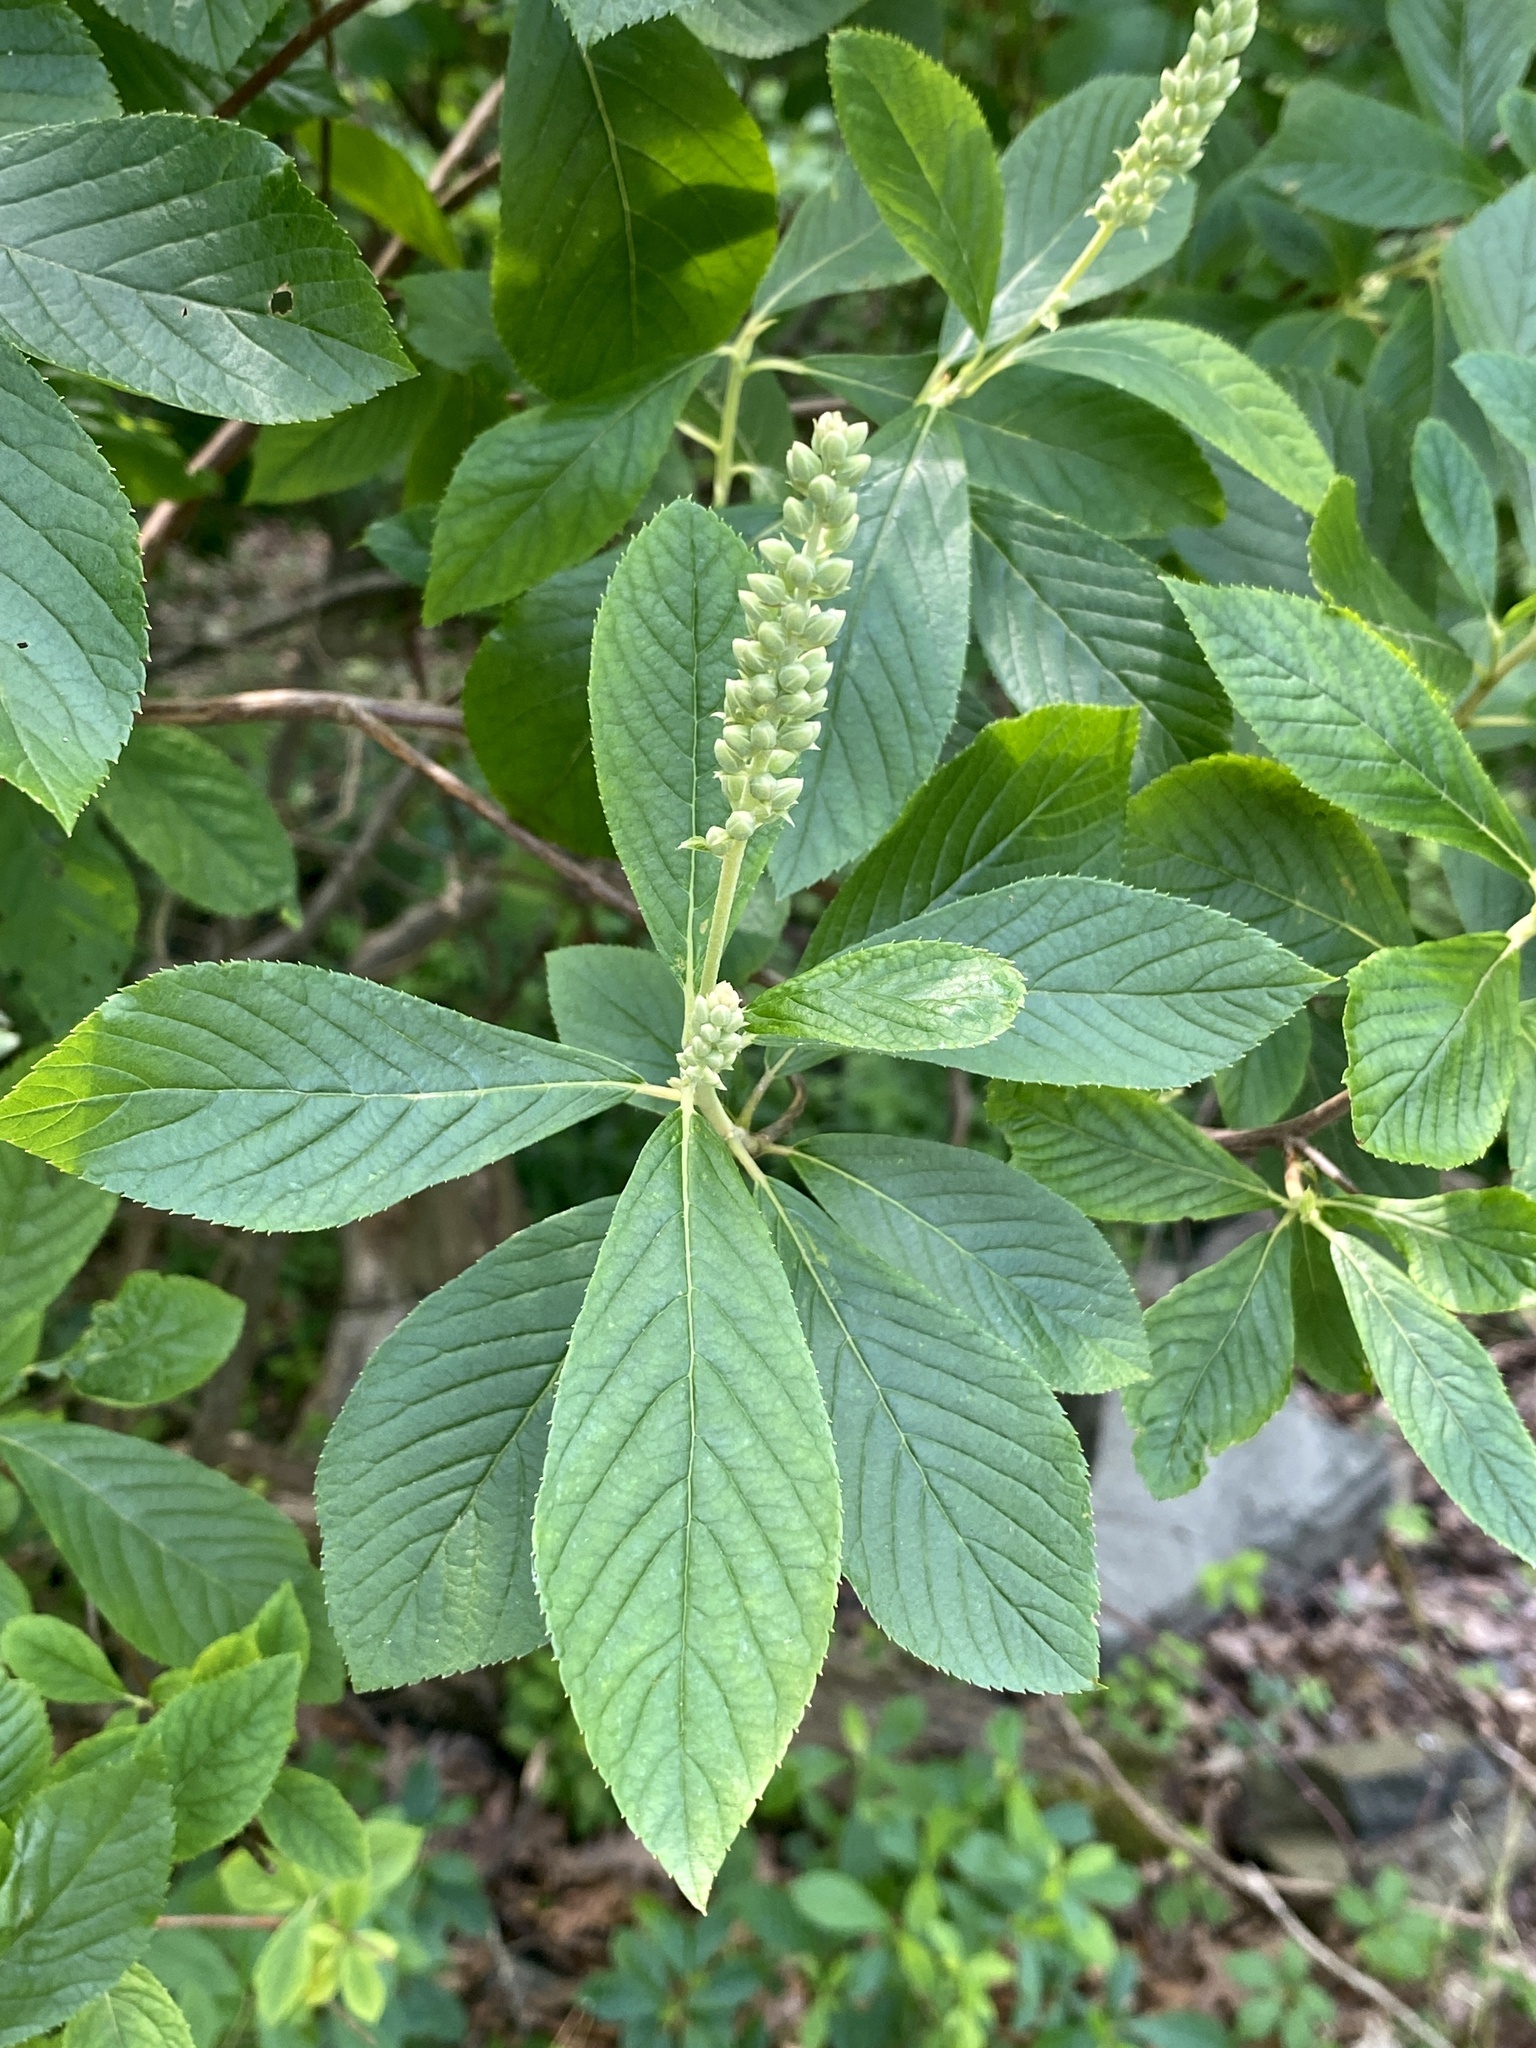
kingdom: Plantae
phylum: Tracheophyta
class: Magnoliopsida
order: Ericales
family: Clethraceae
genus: Clethra
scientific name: Clethra alnifolia
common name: Sweet pepperbush
